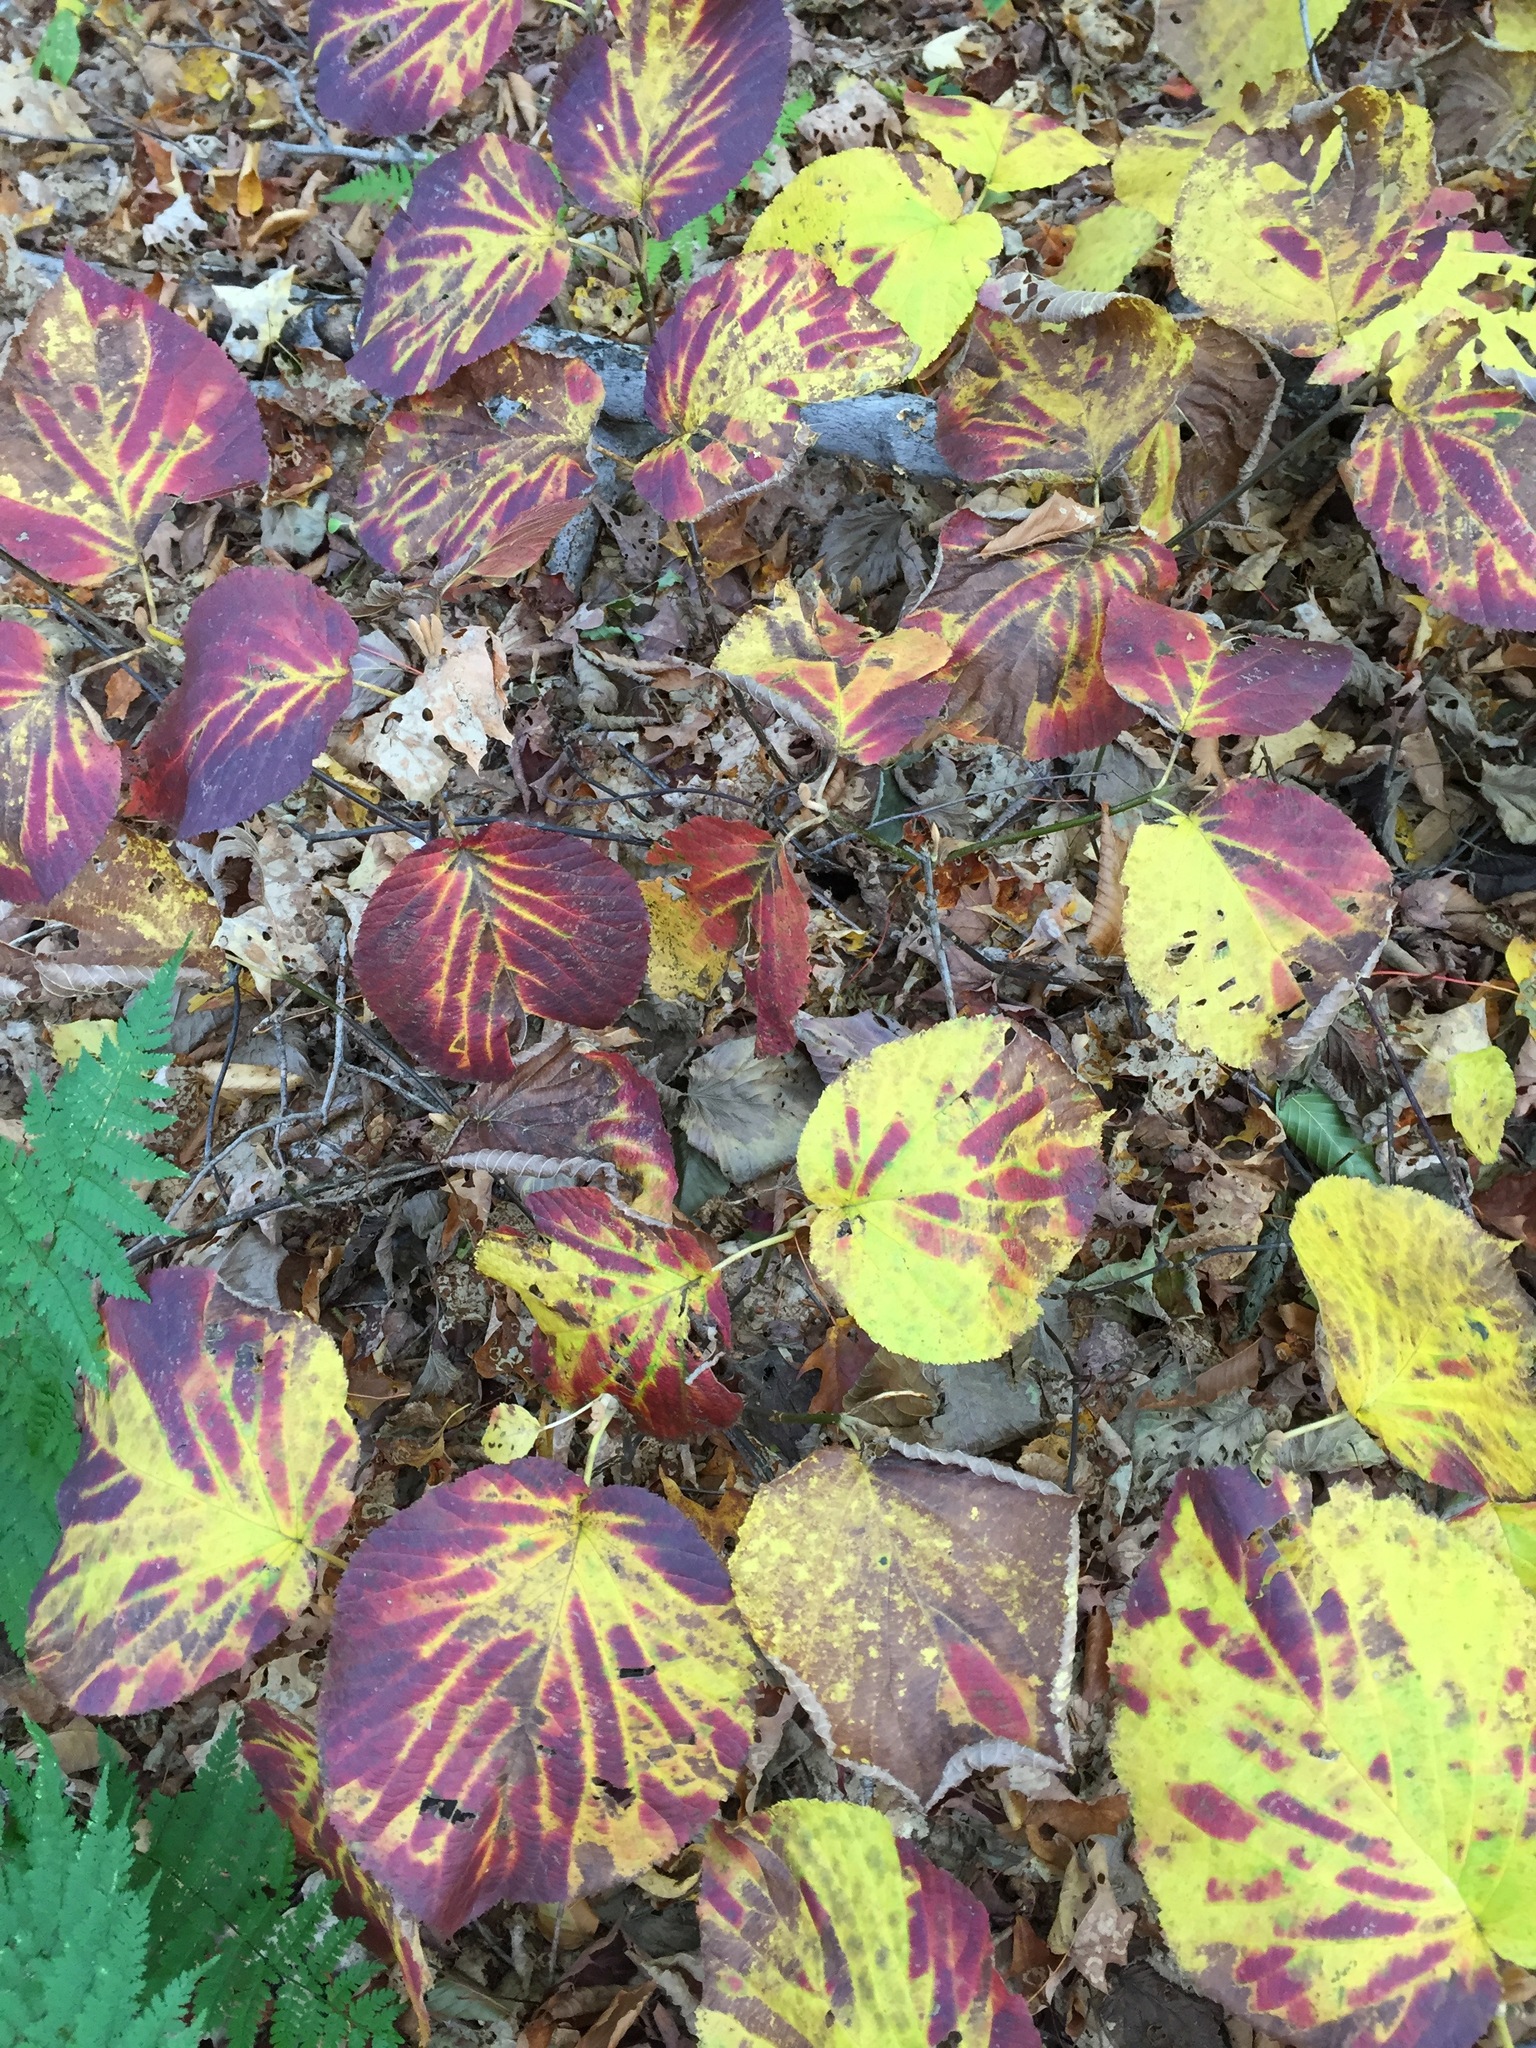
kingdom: Plantae
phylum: Tracheophyta
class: Magnoliopsida
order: Dipsacales
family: Viburnaceae
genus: Viburnum
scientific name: Viburnum lantanoides
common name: Hobblebush
